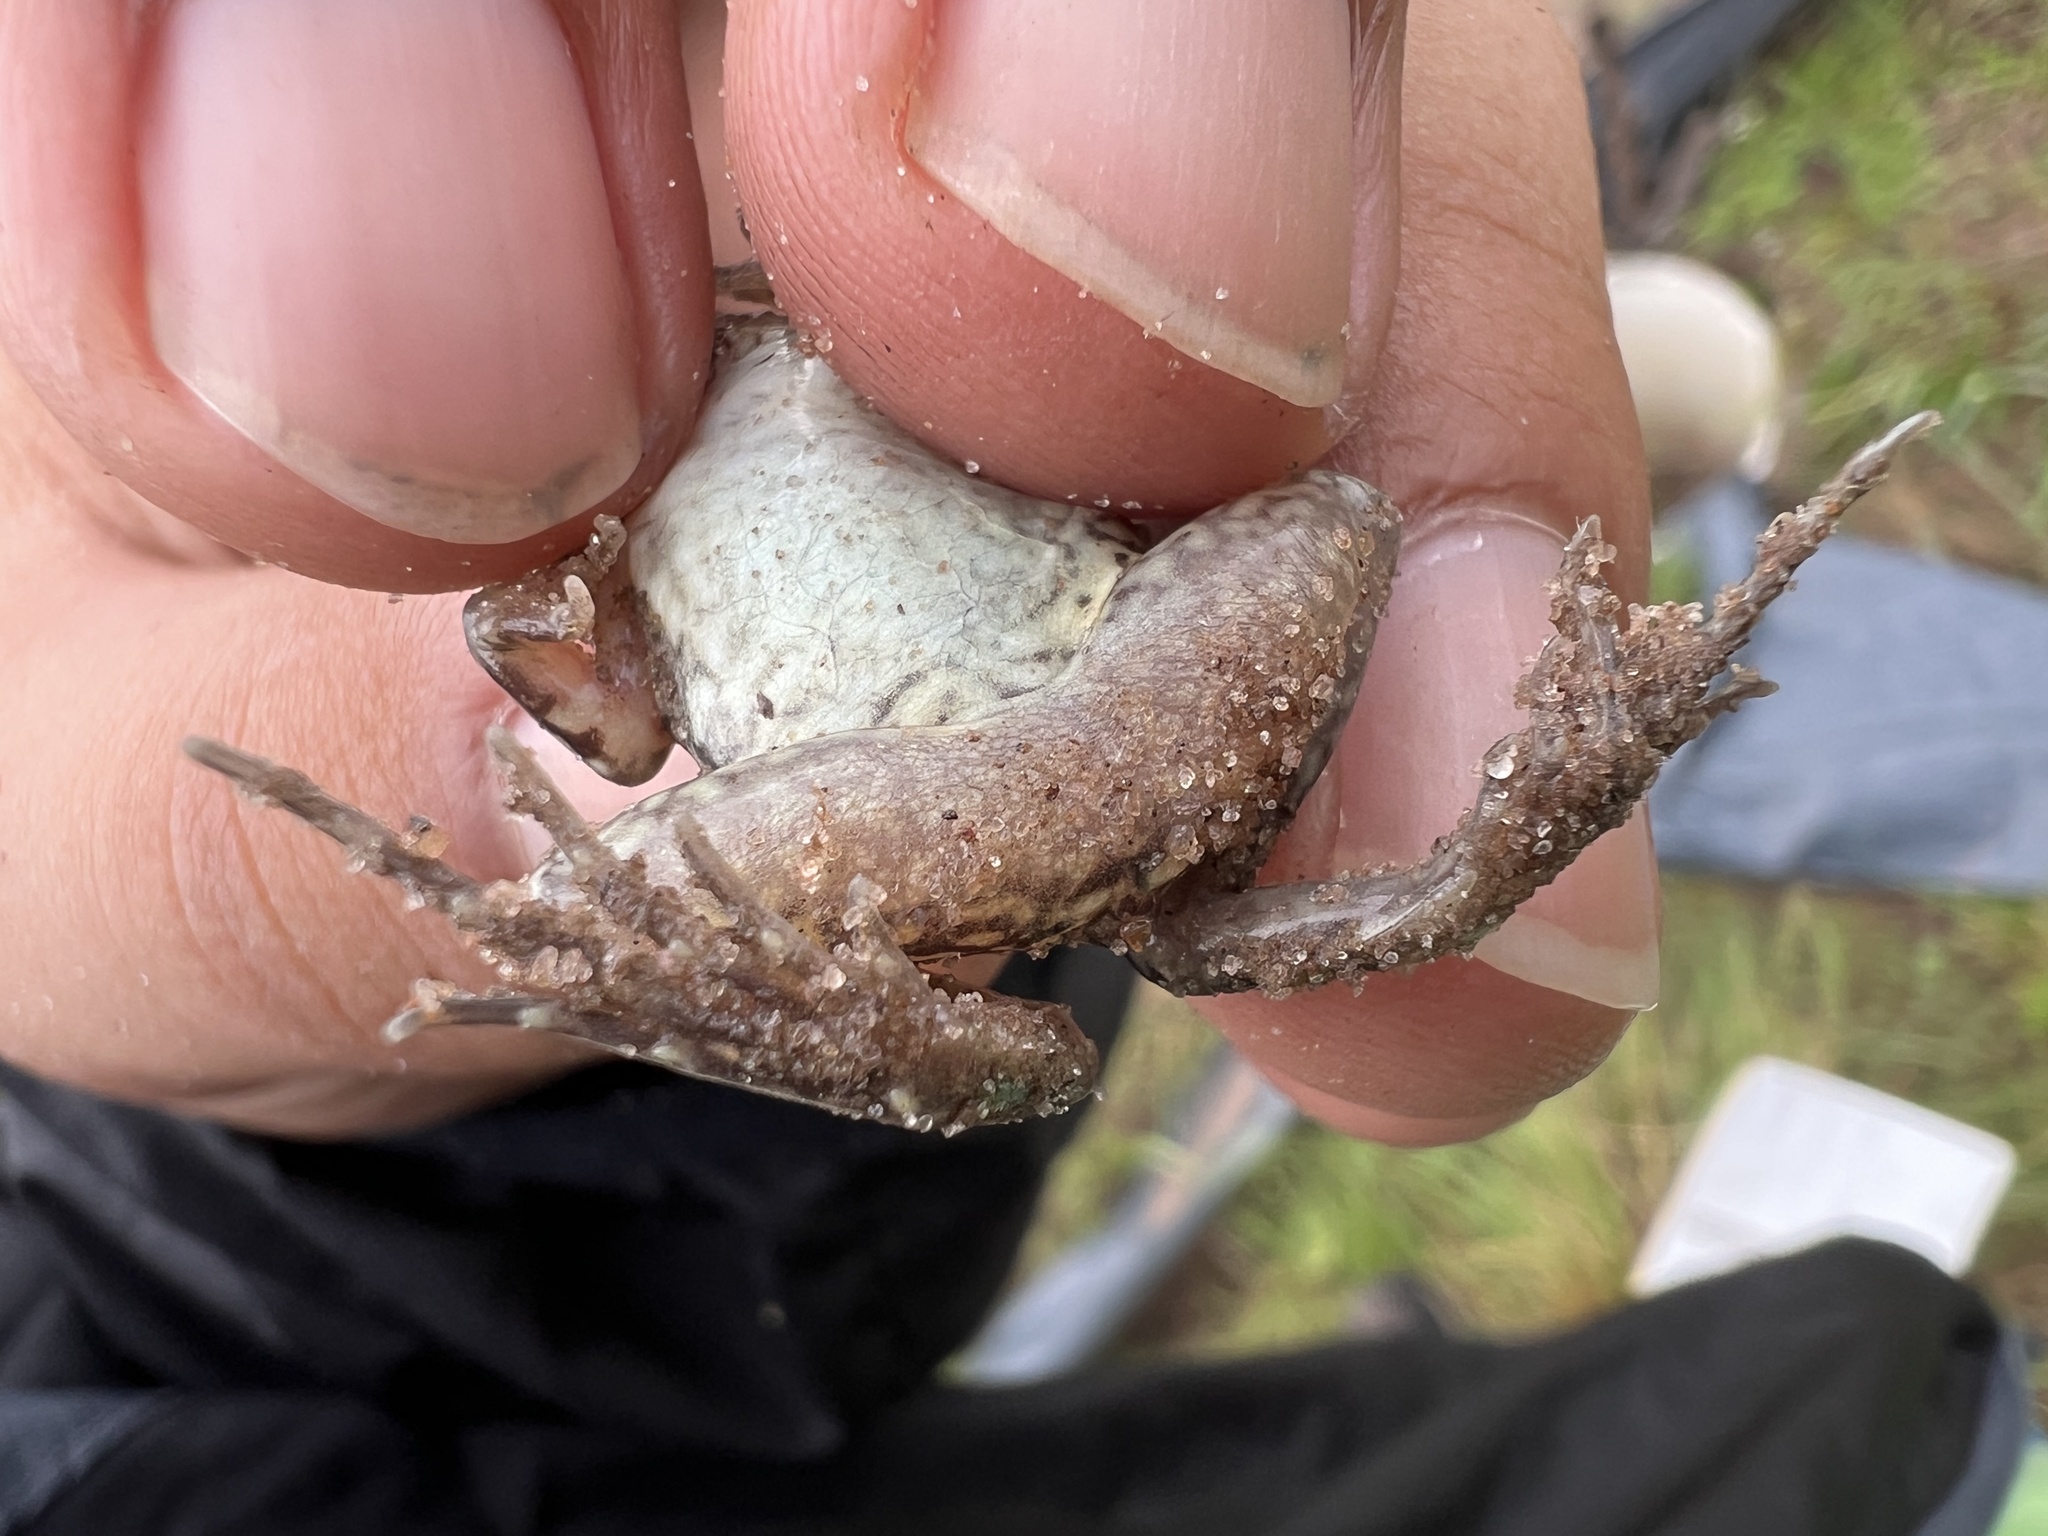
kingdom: Animalia
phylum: Chordata
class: Amphibia
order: Anura
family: Leptodactylidae
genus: Leptodactylus
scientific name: Leptodactylus latrans
